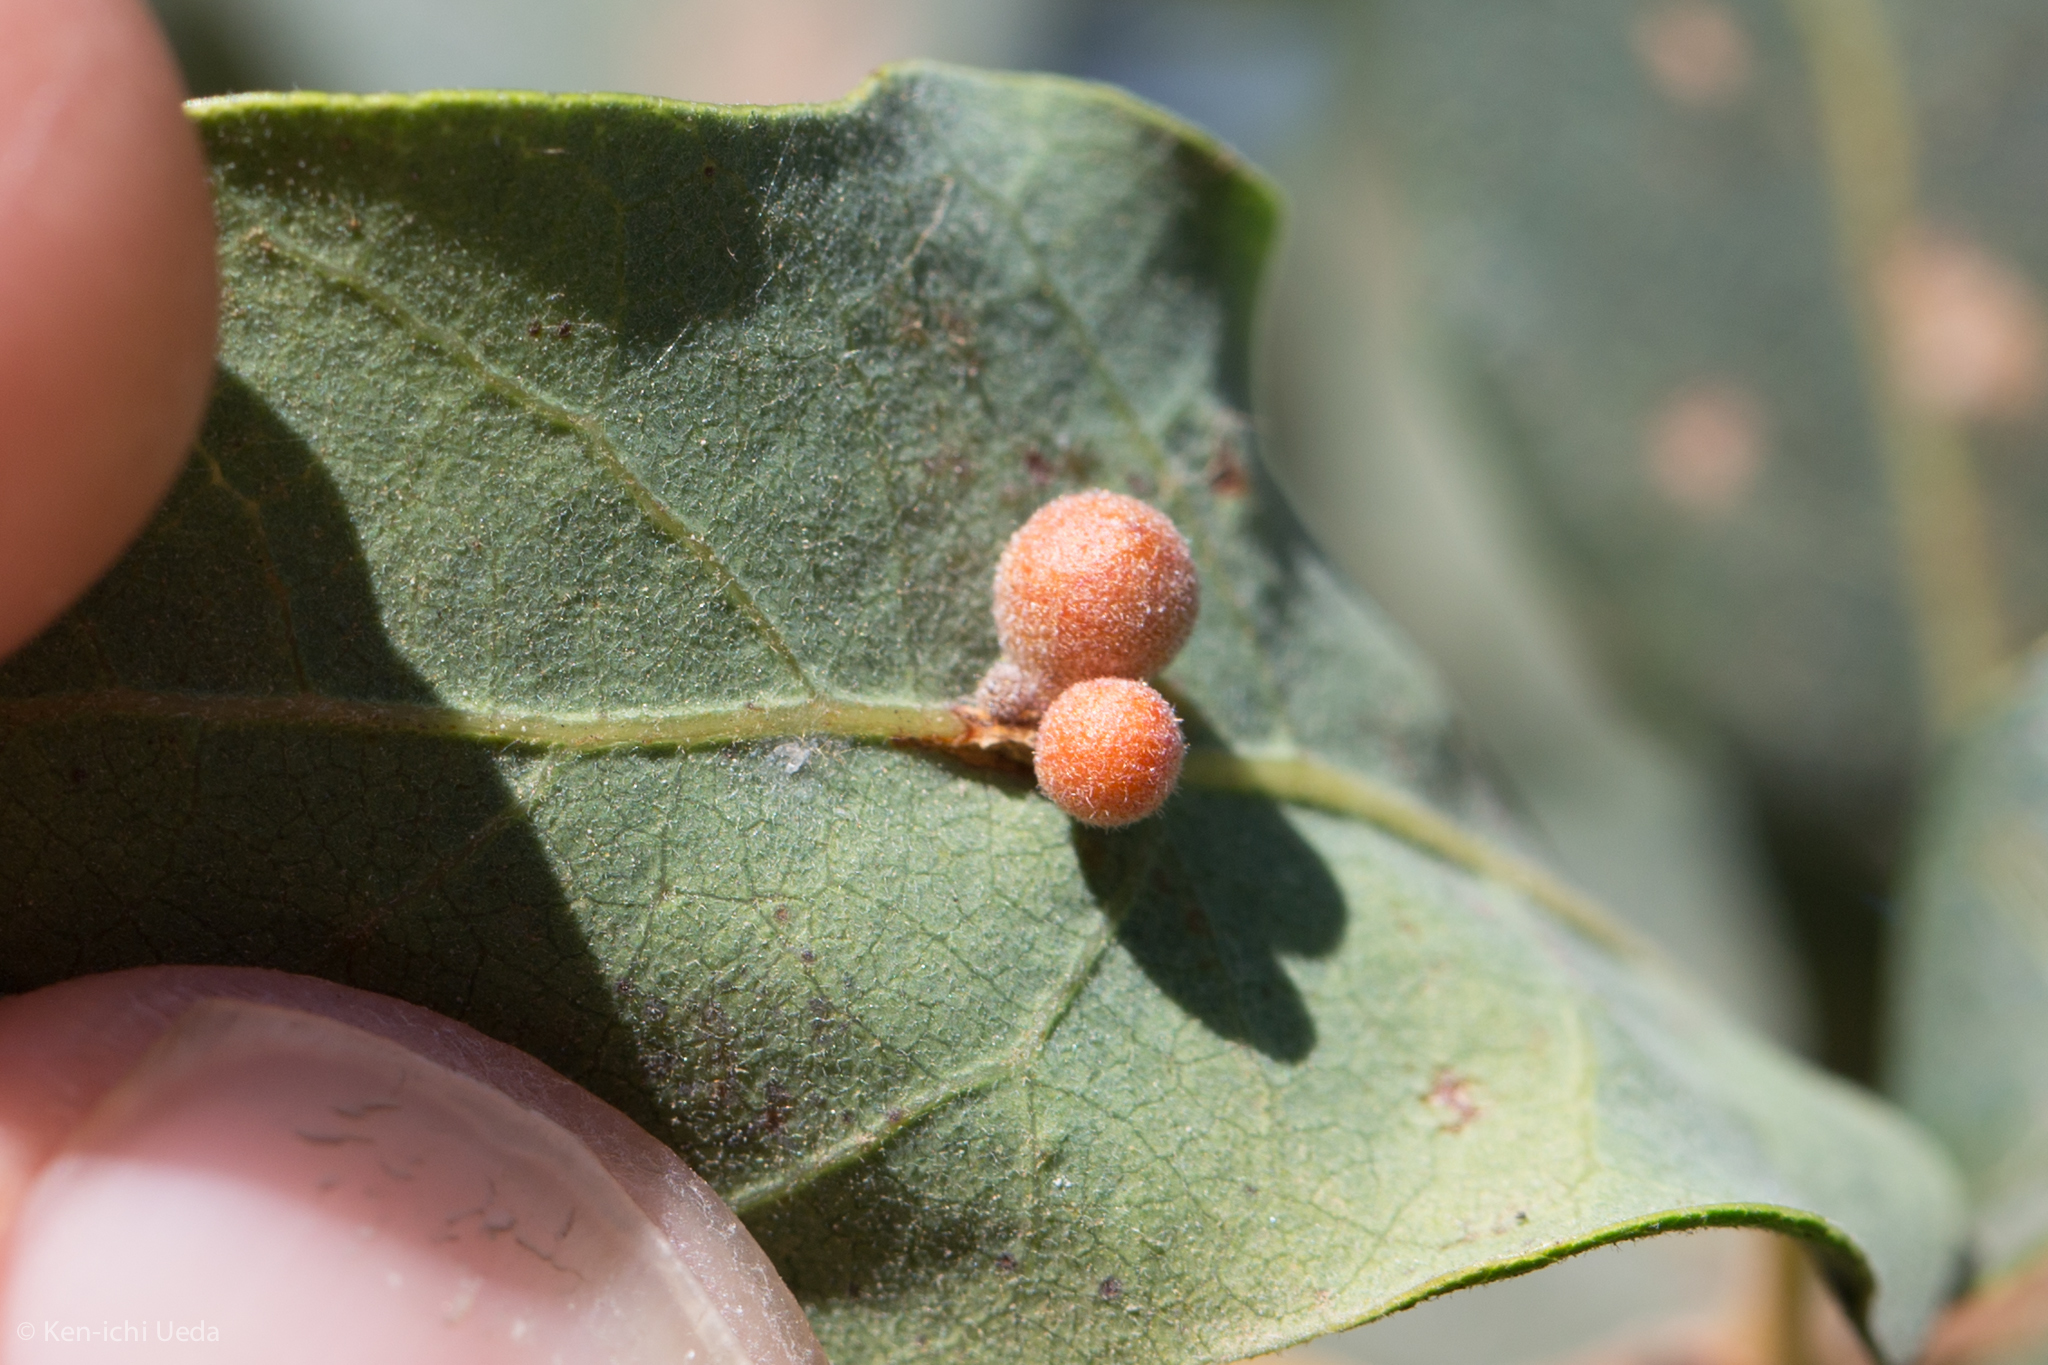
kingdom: Animalia
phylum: Arthropoda
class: Insecta
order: Hymenoptera
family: Cynipidae
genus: Andricus
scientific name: Andricus
